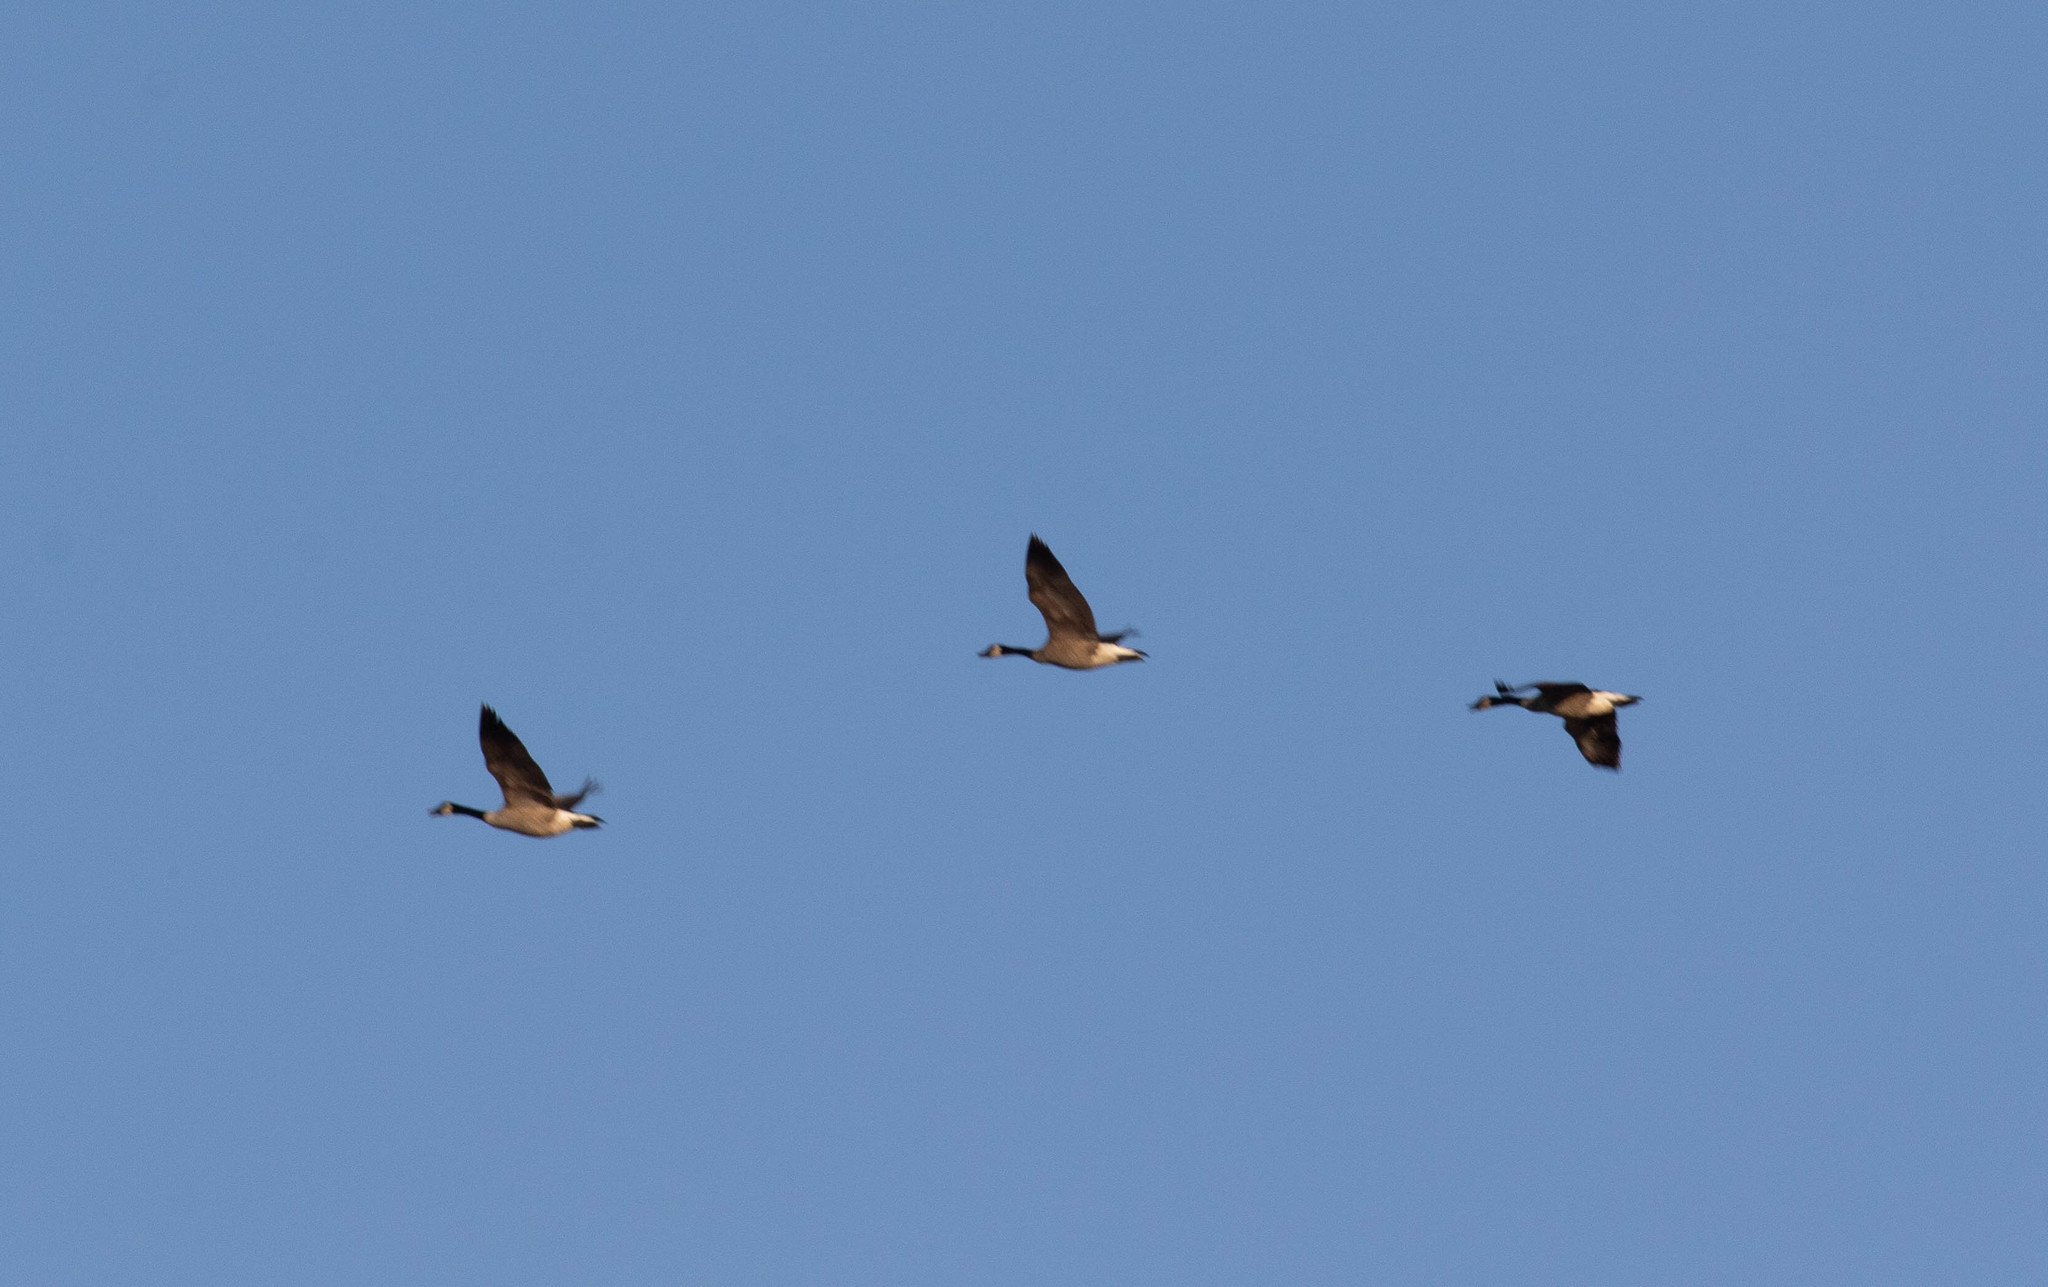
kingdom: Animalia
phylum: Chordata
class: Aves
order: Anseriformes
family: Anatidae
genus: Branta
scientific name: Branta canadensis
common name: Canada goose
